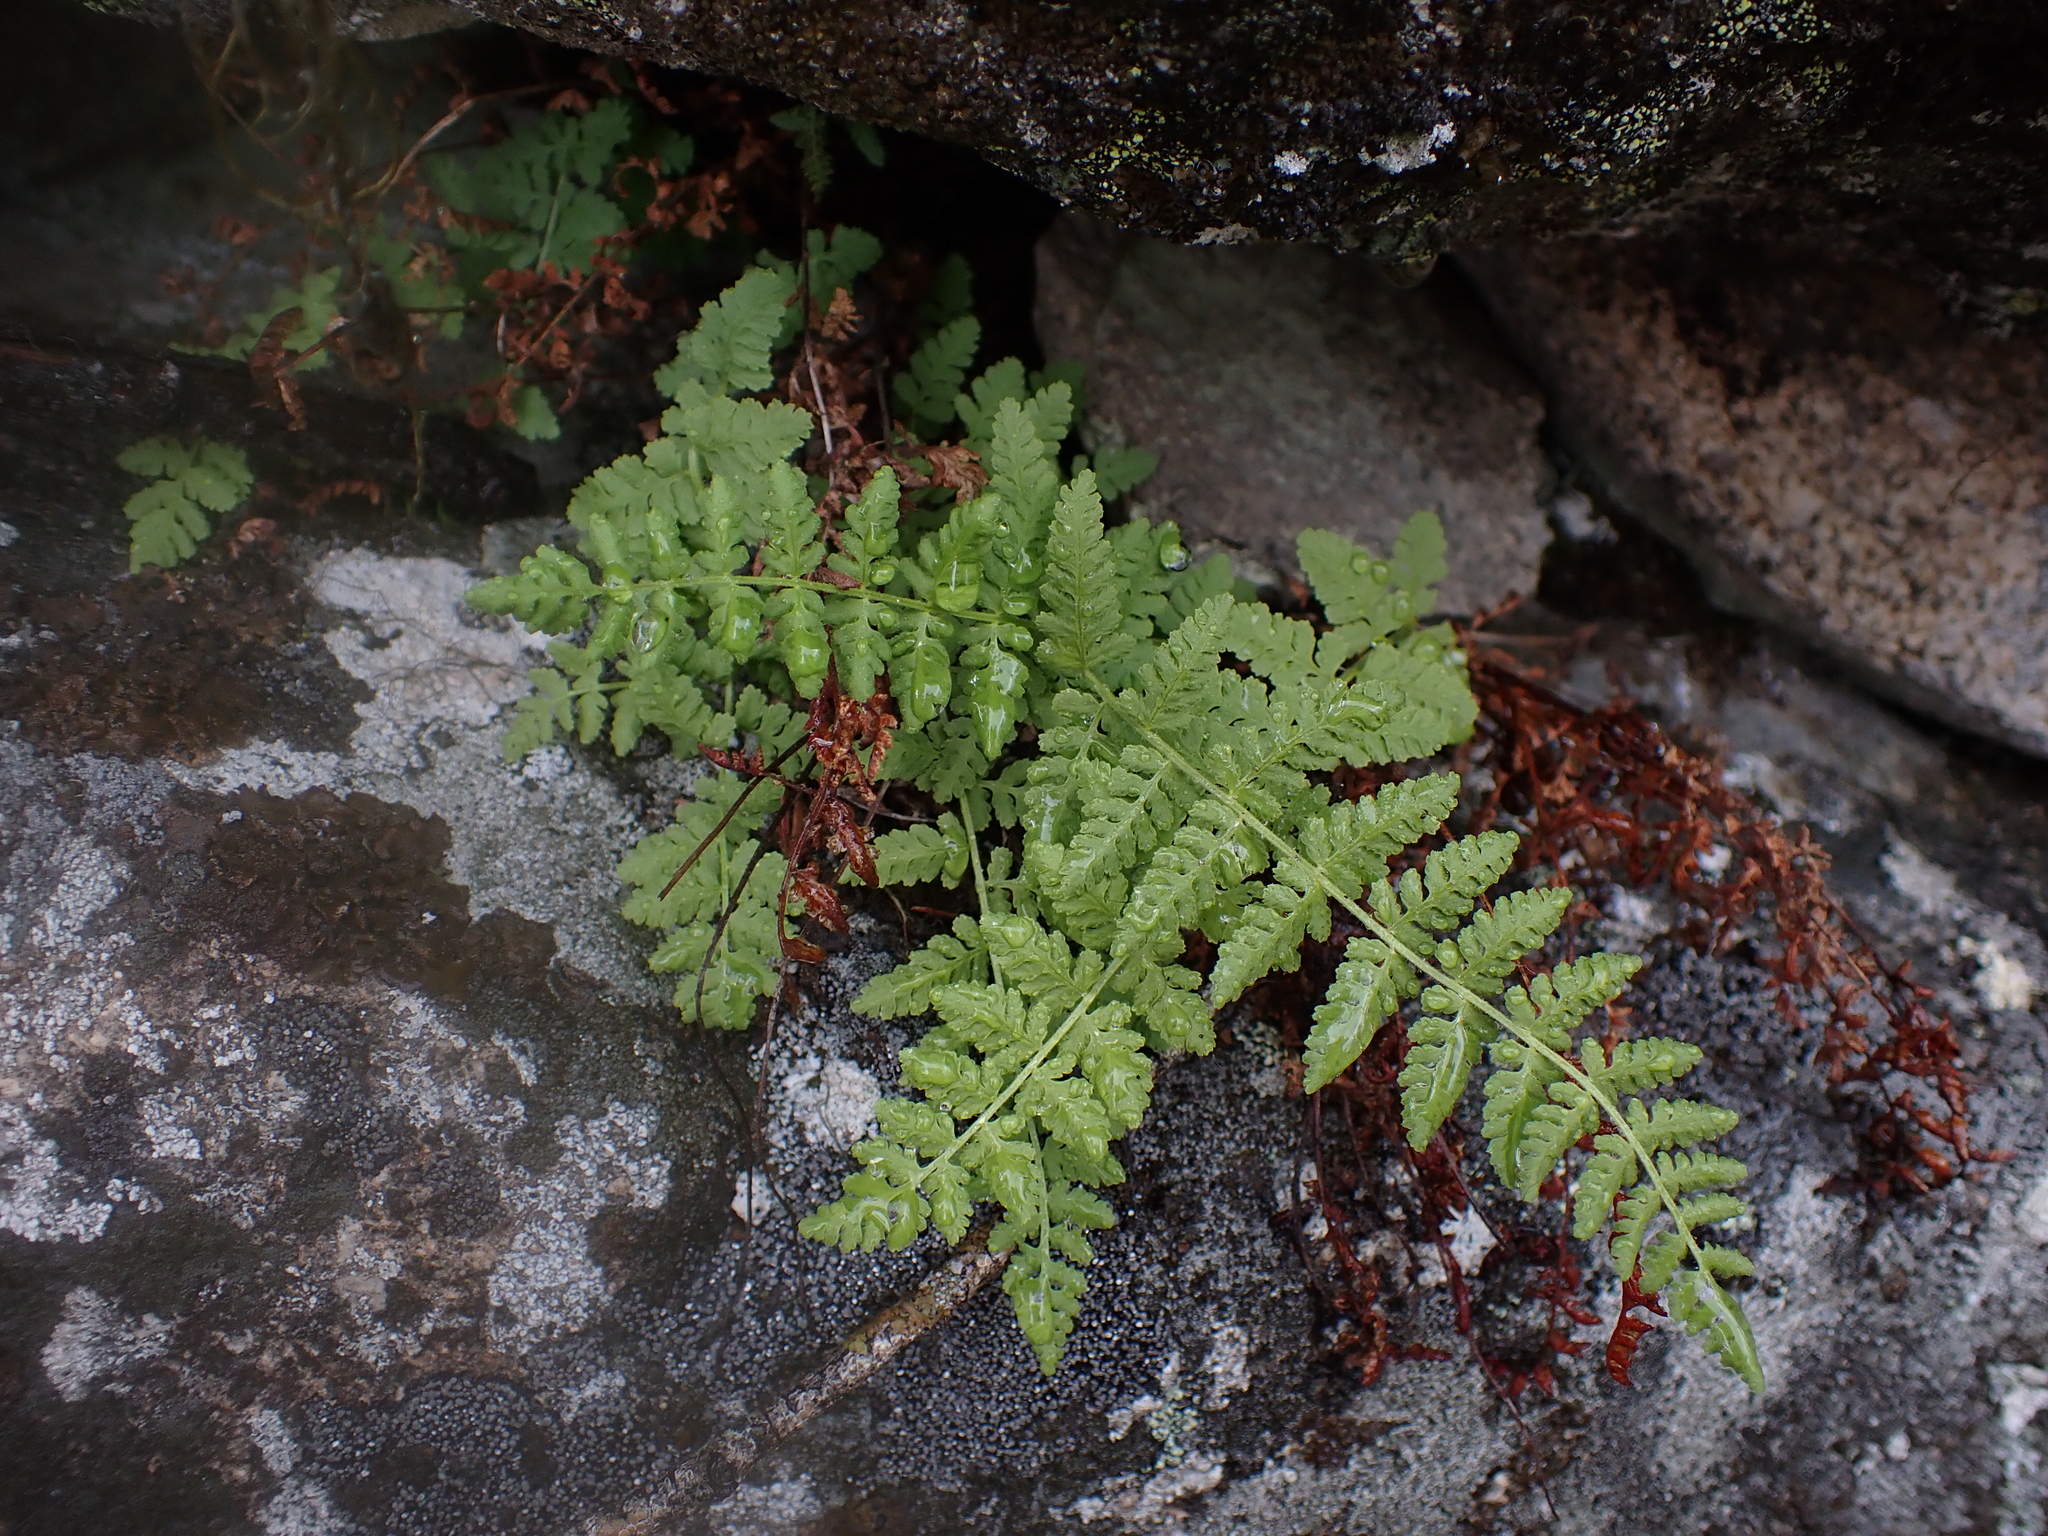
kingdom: Plantae
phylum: Tracheophyta
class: Polypodiopsida
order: Polypodiales
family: Woodsiaceae
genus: Physematium
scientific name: Physematium scopulinum
